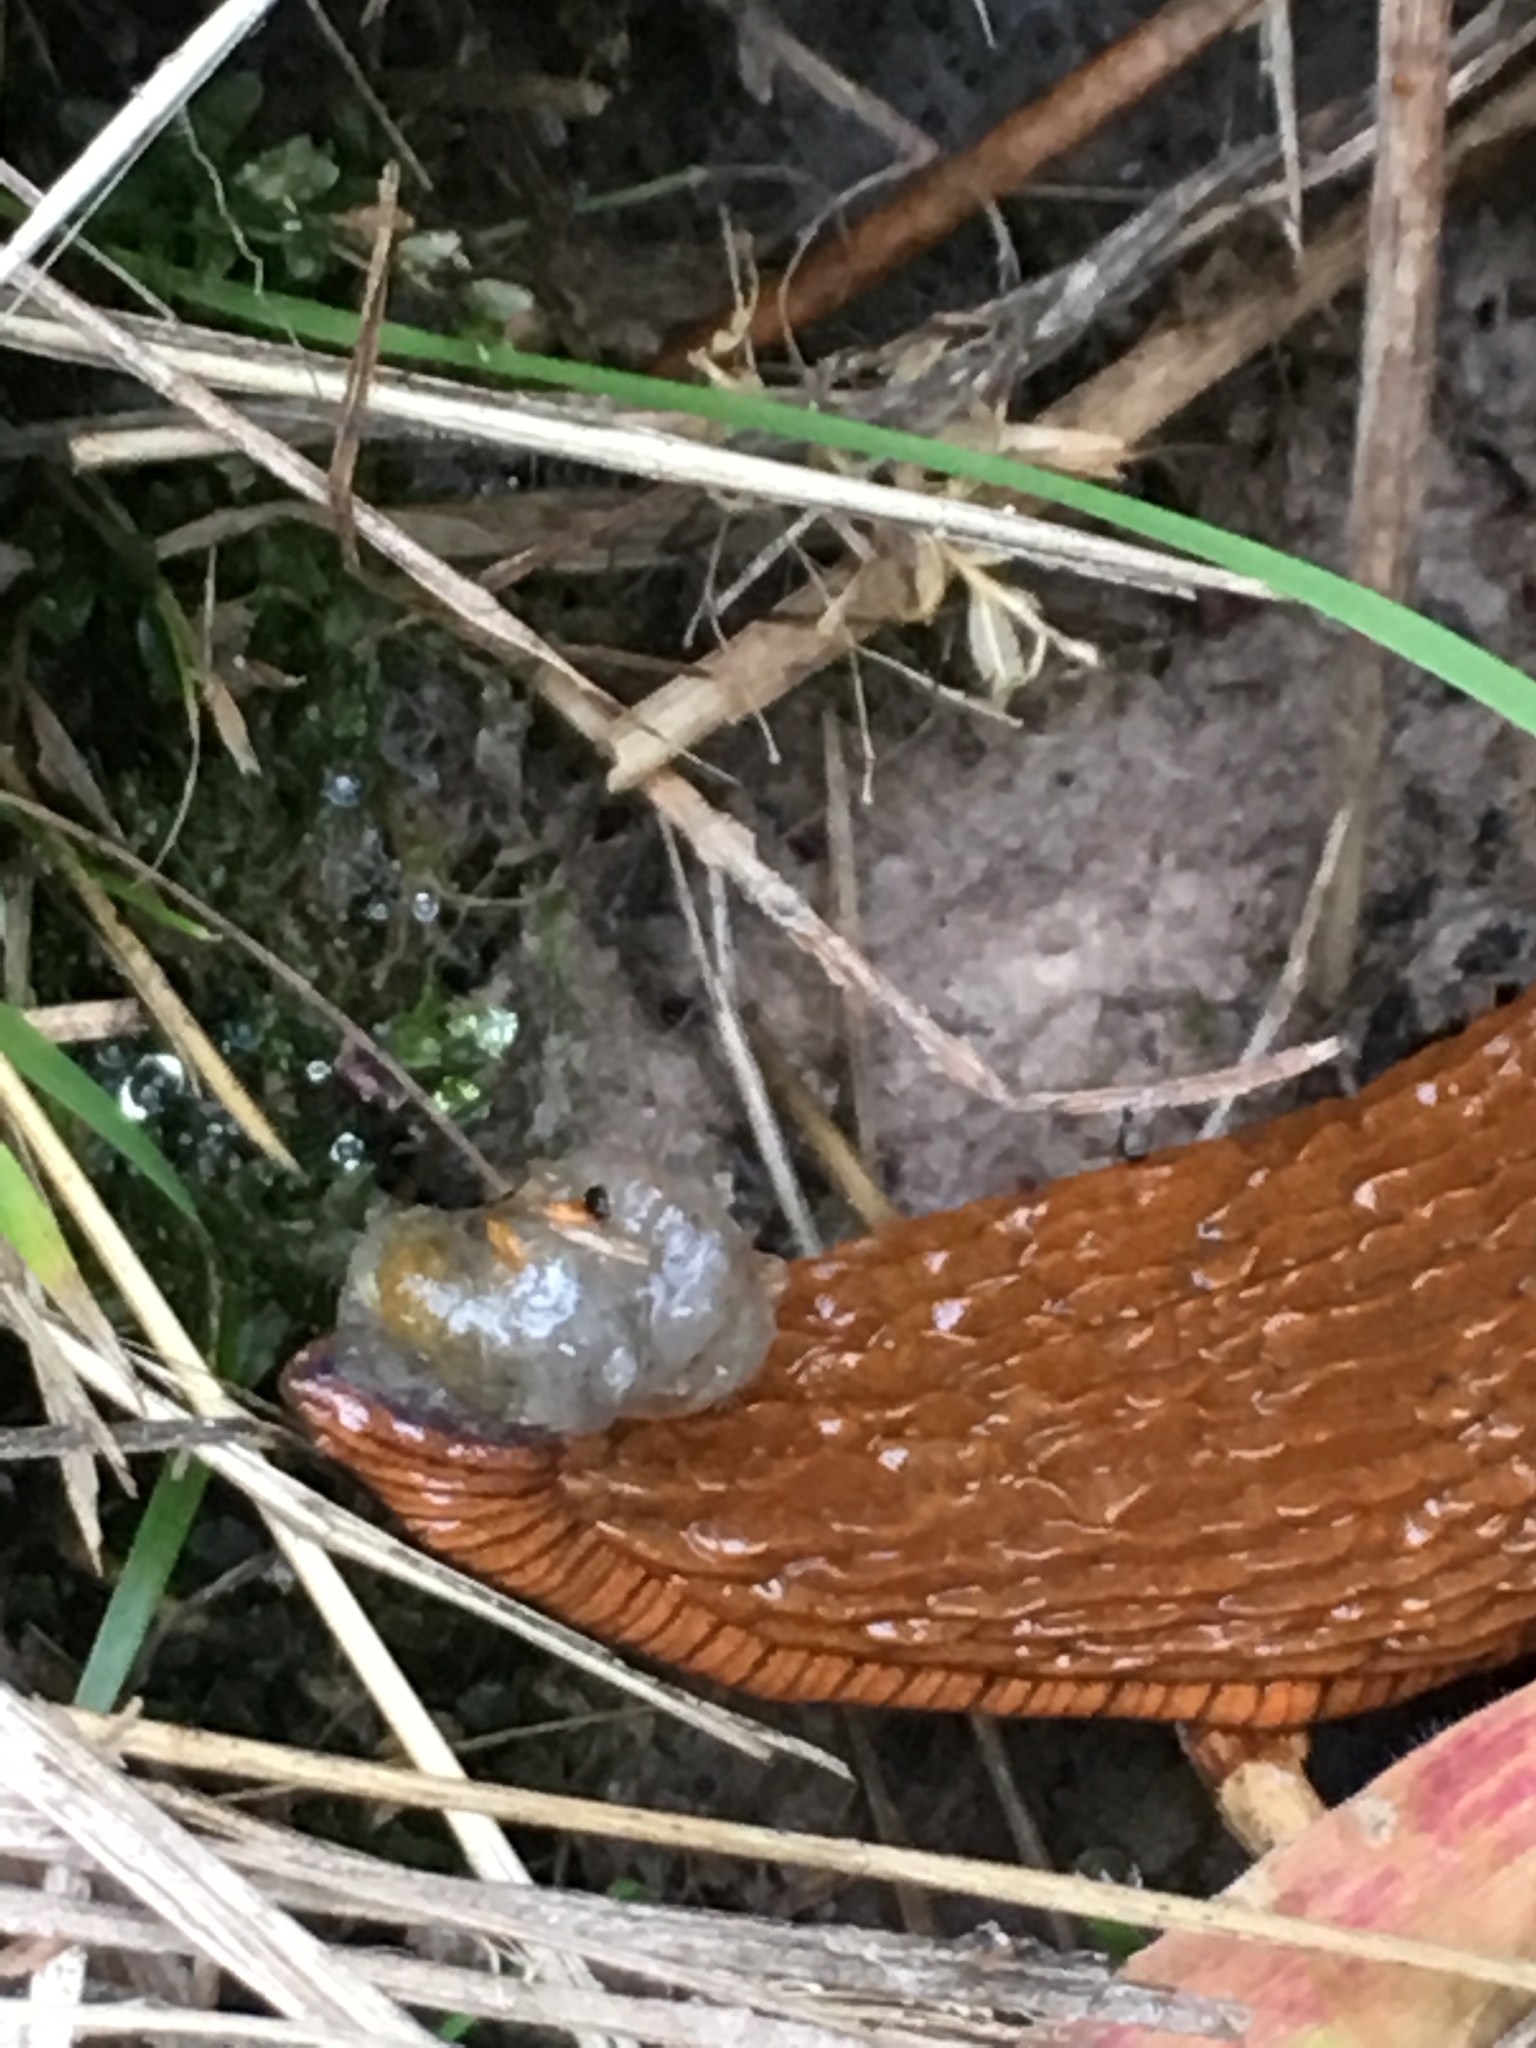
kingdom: Animalia
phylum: Mollusca
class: Gastropoda
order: Stylommatophora
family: Arionidae
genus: Arion
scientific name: Arion
